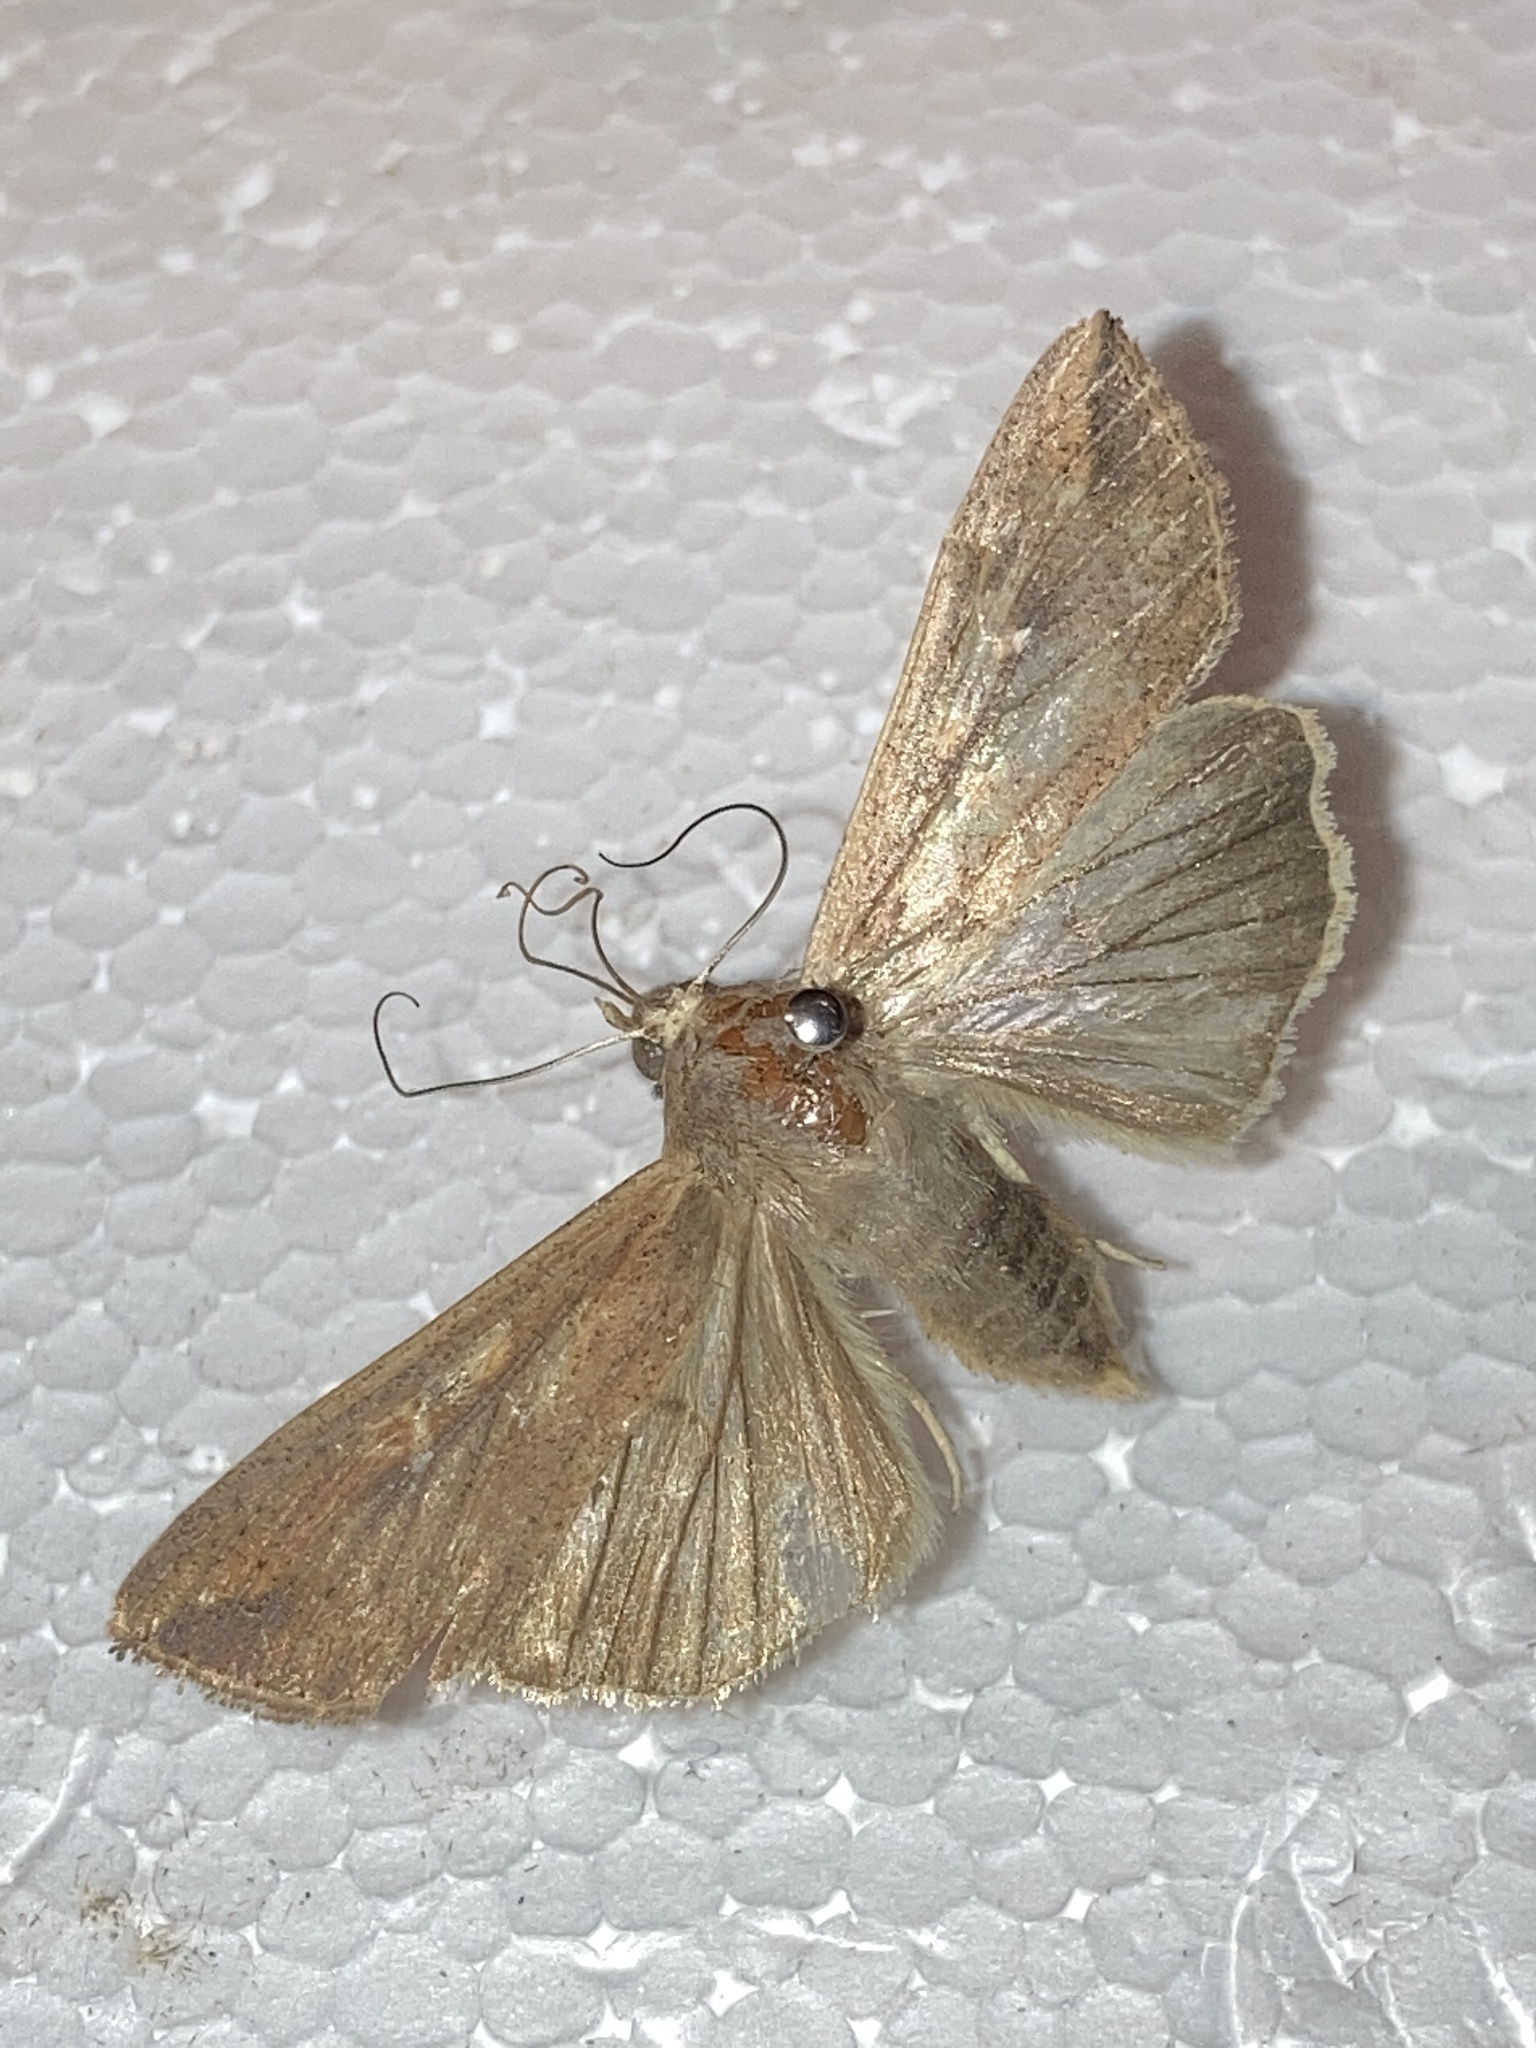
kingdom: Animalia
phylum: Arthropoda
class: Insecta
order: Lepidoptera
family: Noctuidae
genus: Mythimna
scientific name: Mythimna unipuncta
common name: White-speck
